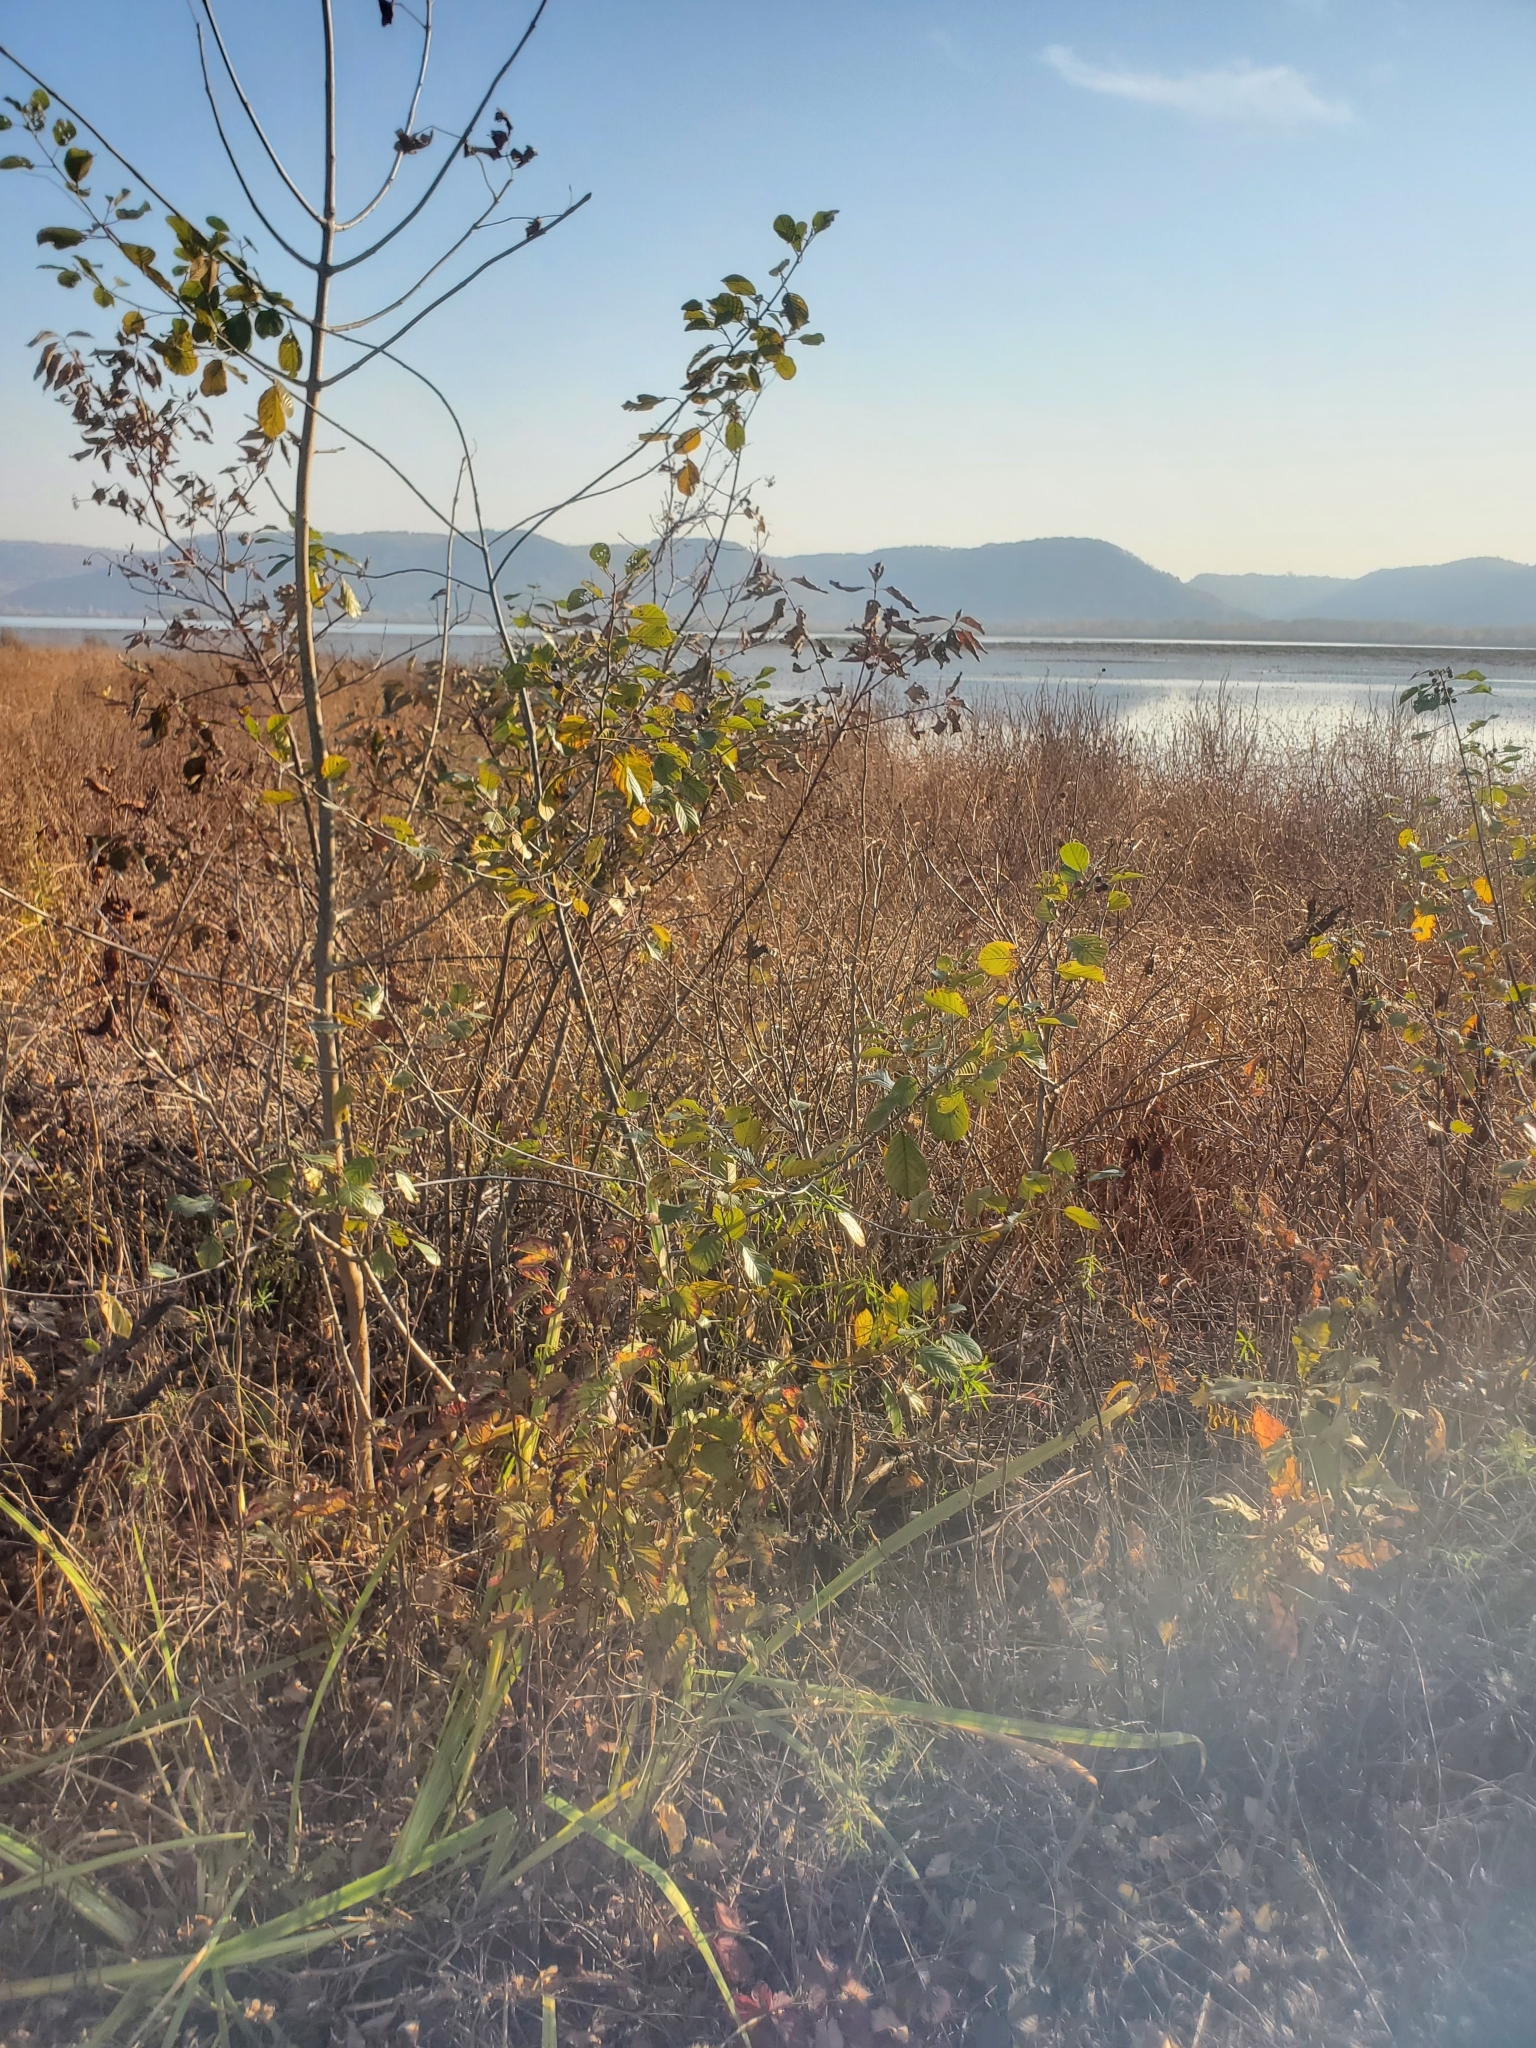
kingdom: Plantae
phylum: Tracheophyta
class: Magnoliopsida
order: Rosales
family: Rhamnaceae
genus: Frangula
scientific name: Frangula alnus
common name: Alder buckthorn
